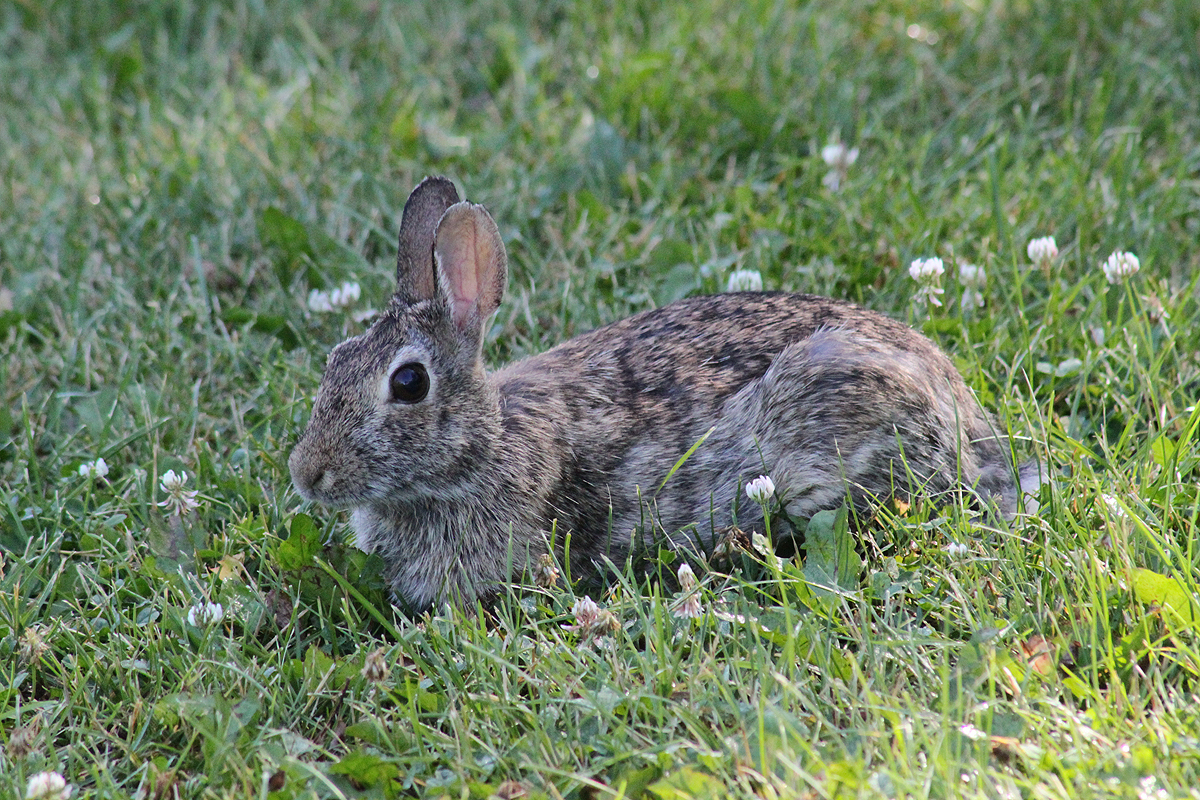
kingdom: Animalia
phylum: Chordata
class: Mammalia
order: Lagomorpha
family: Leporidae
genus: Sylvilagus
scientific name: Sylvilagus floridanus
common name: Eastern cottontail
